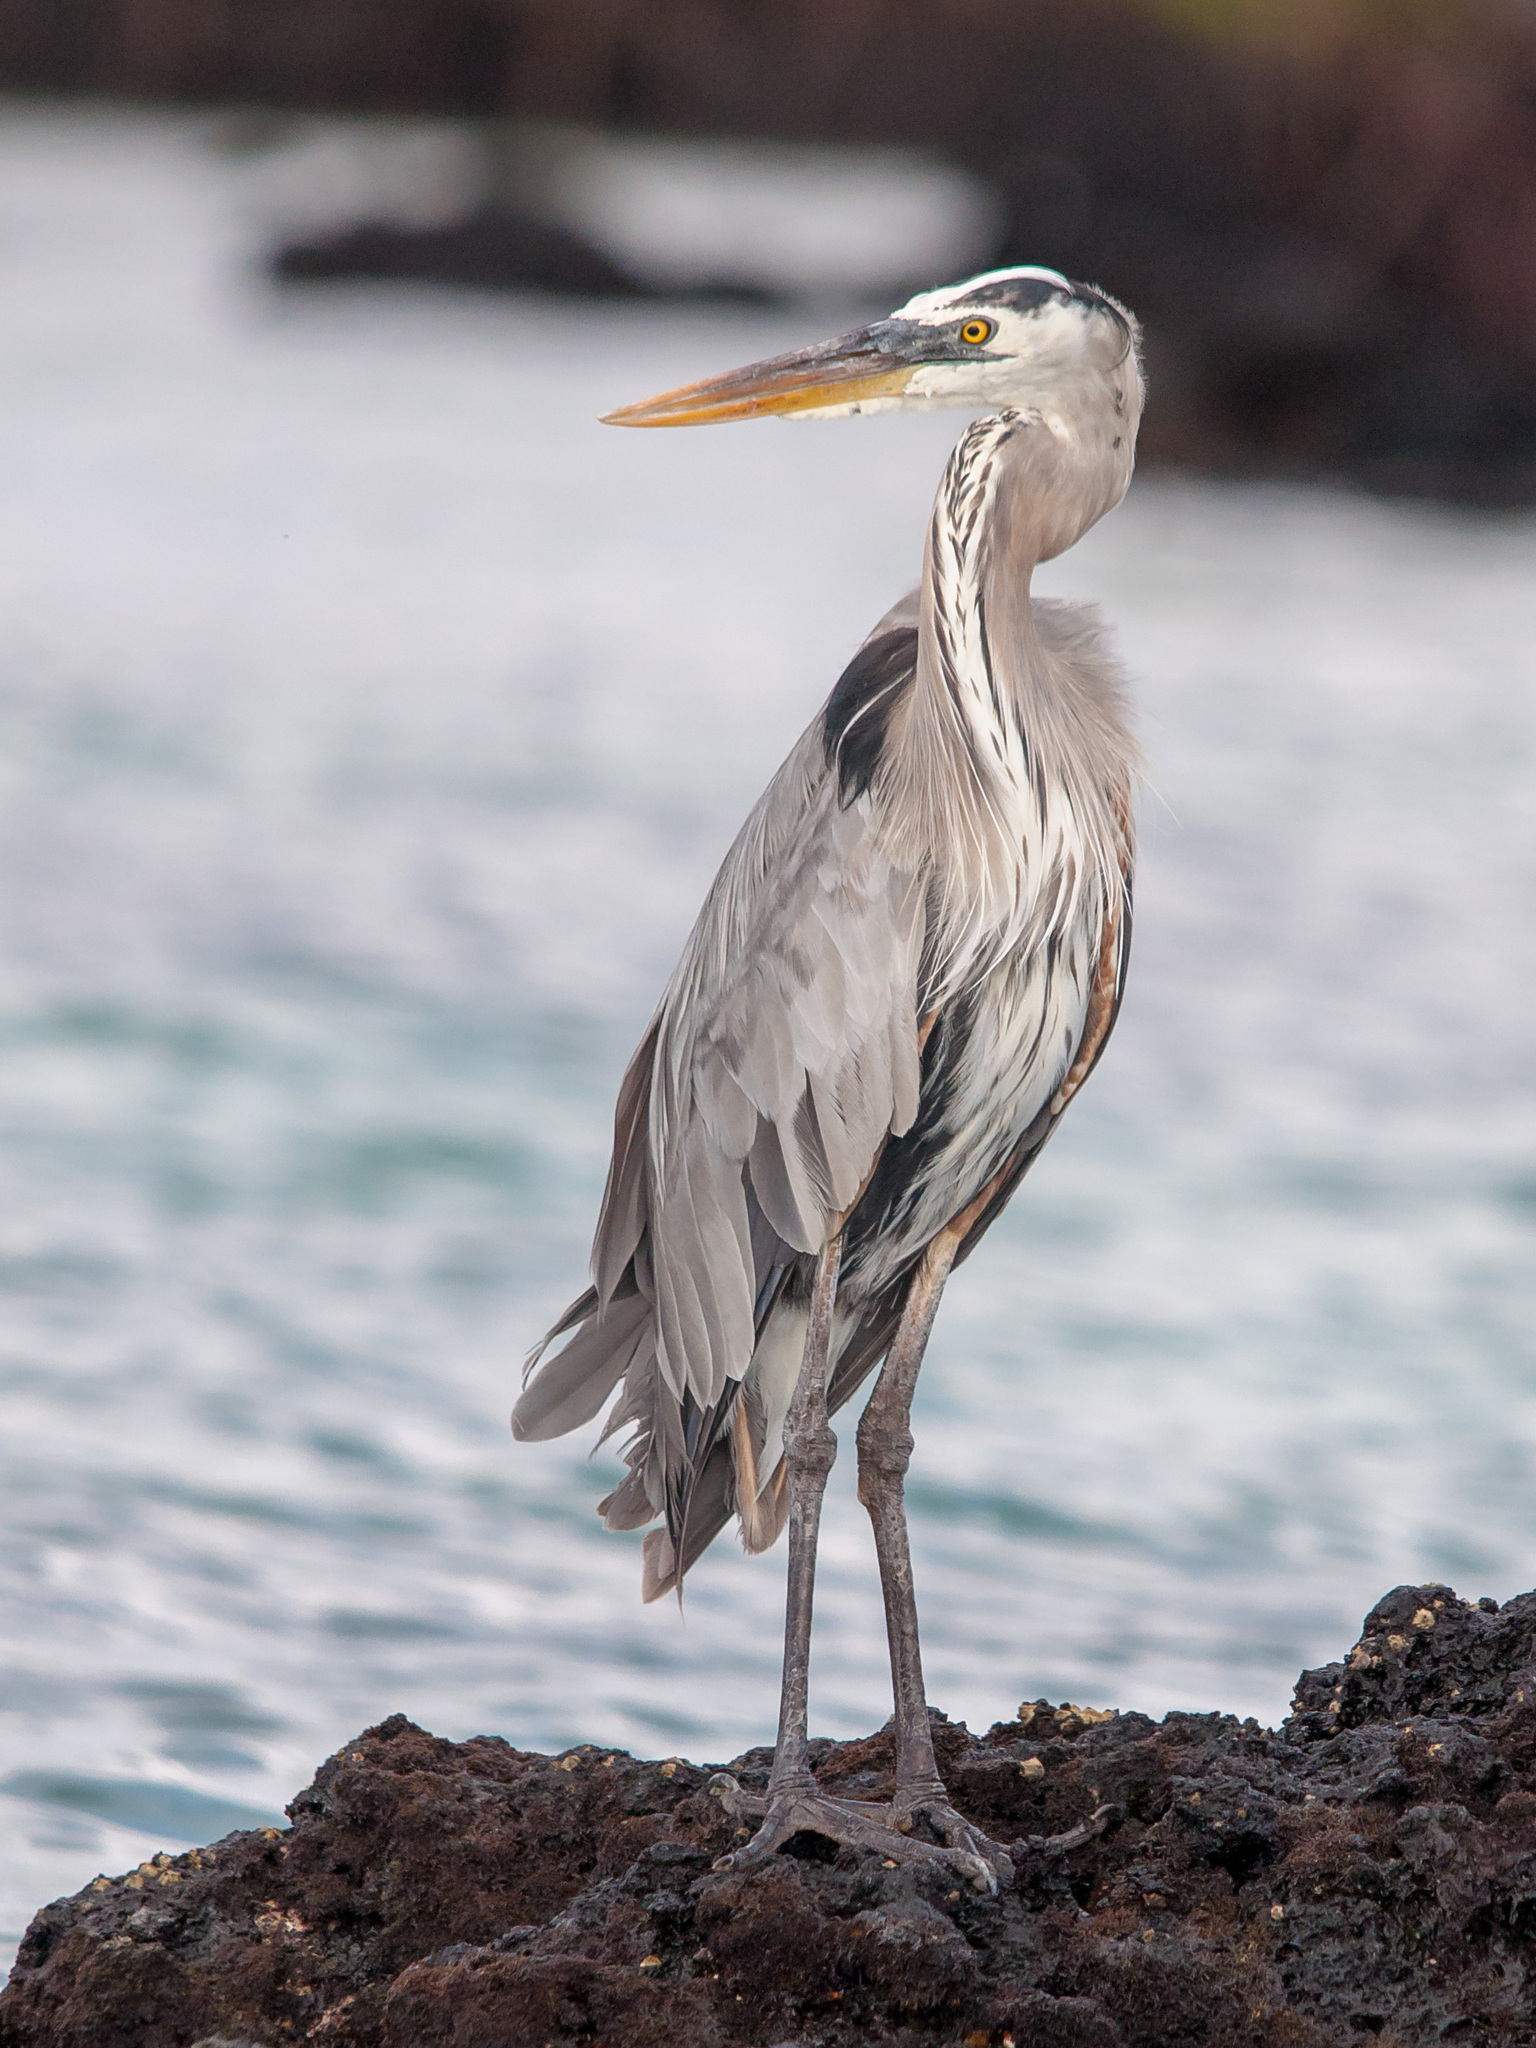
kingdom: Animalia
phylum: Chordata
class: Aves
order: Pelecaniformes
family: Ardeidae
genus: Ardea
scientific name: Ardea herodias
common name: Great blue heron
